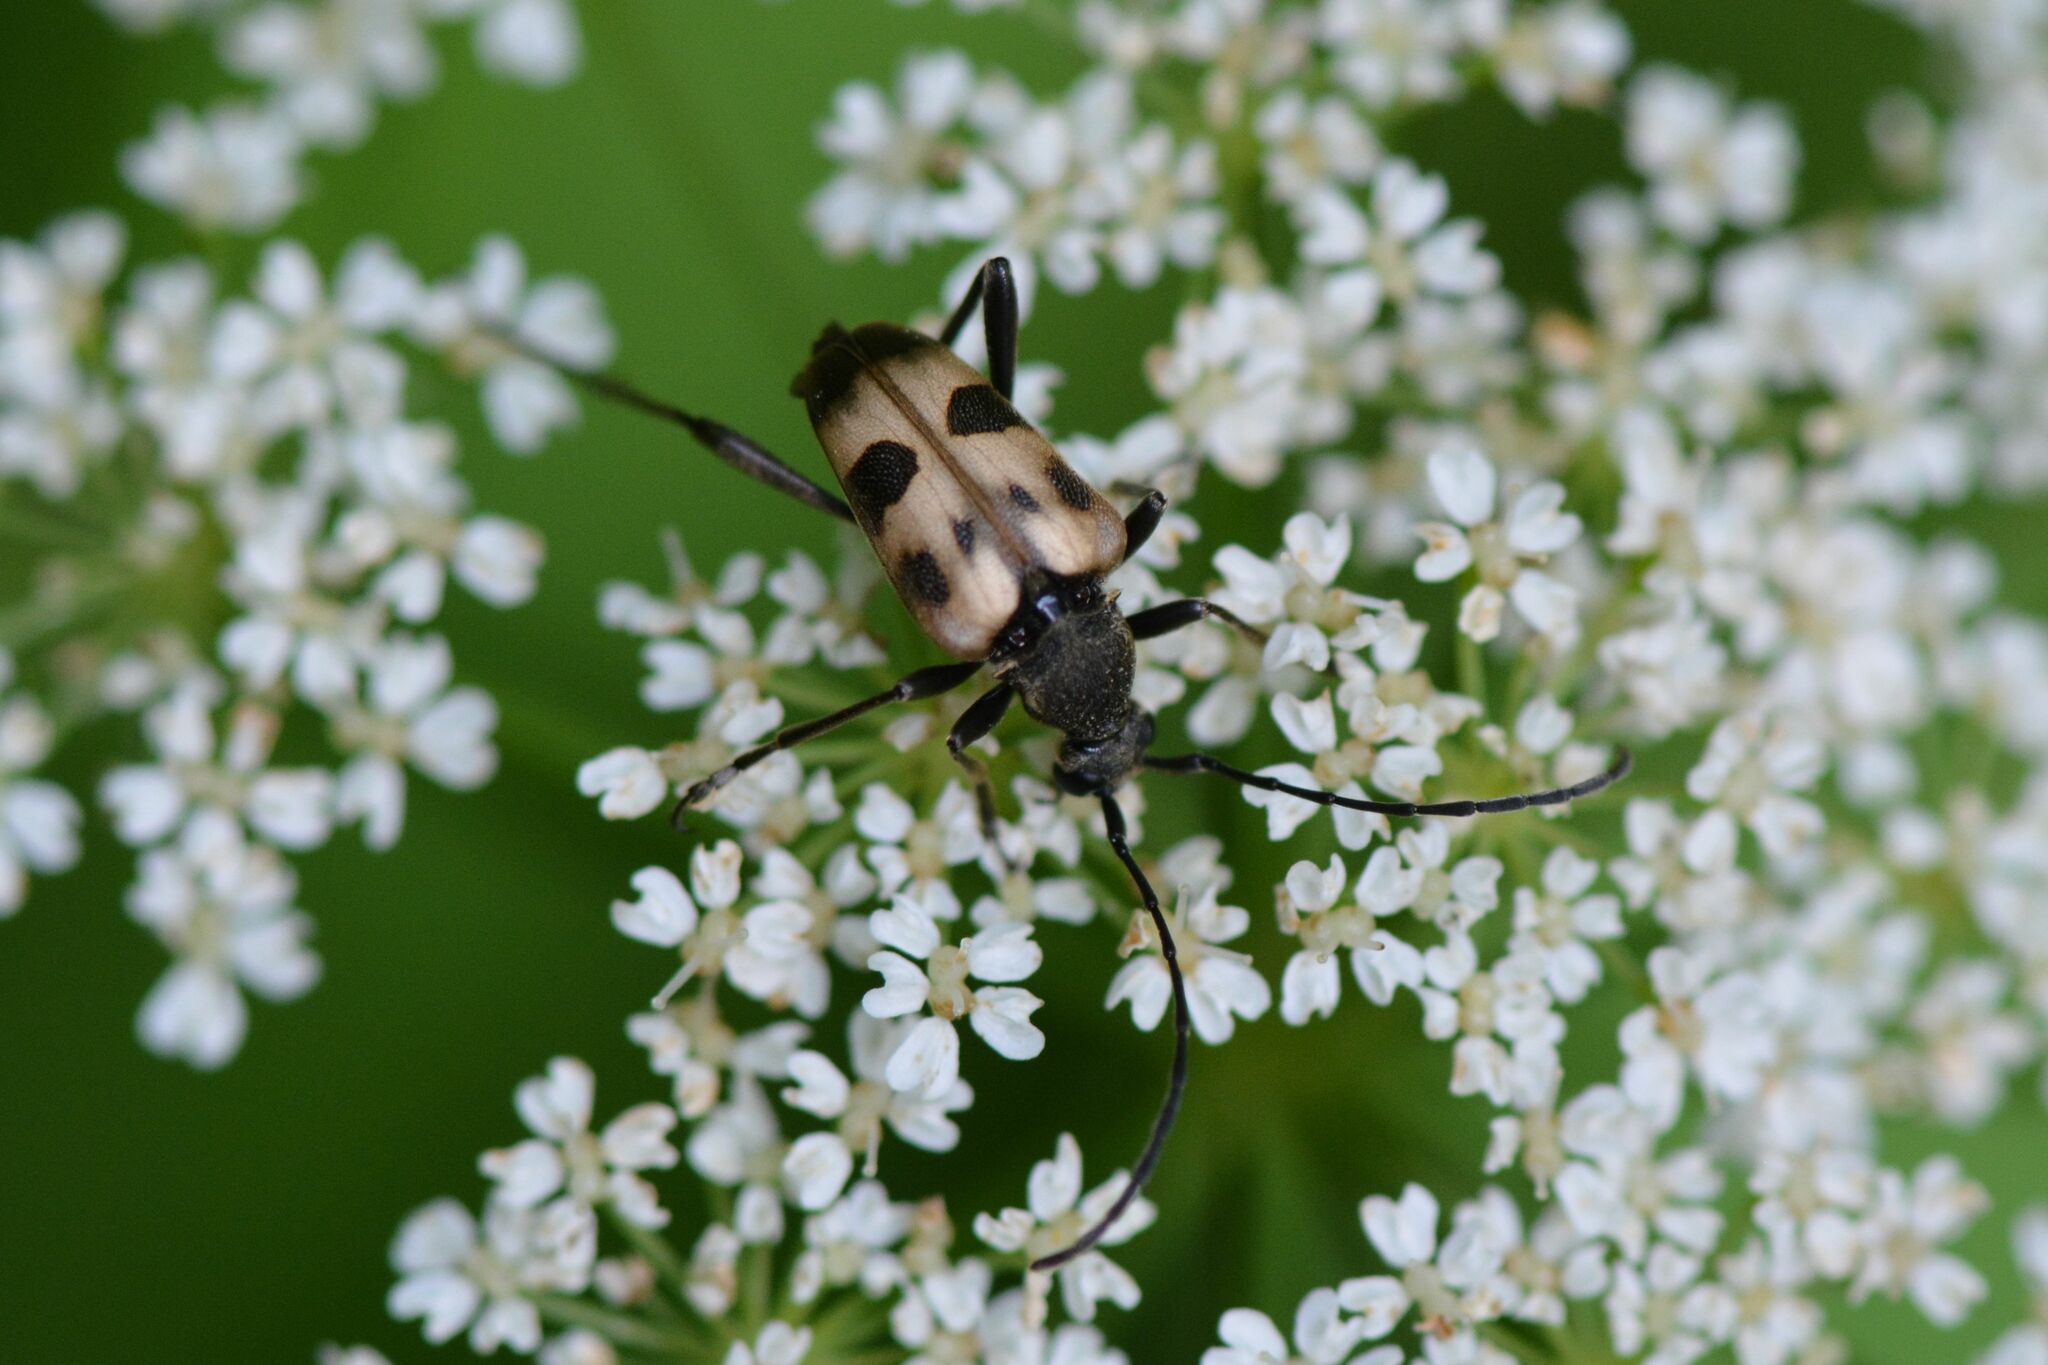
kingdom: Animalia
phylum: Arthropoda
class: Insecta
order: Coleoptera
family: Cerambycidae
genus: Pachytodes
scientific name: Pachytodes cerambyciformis
